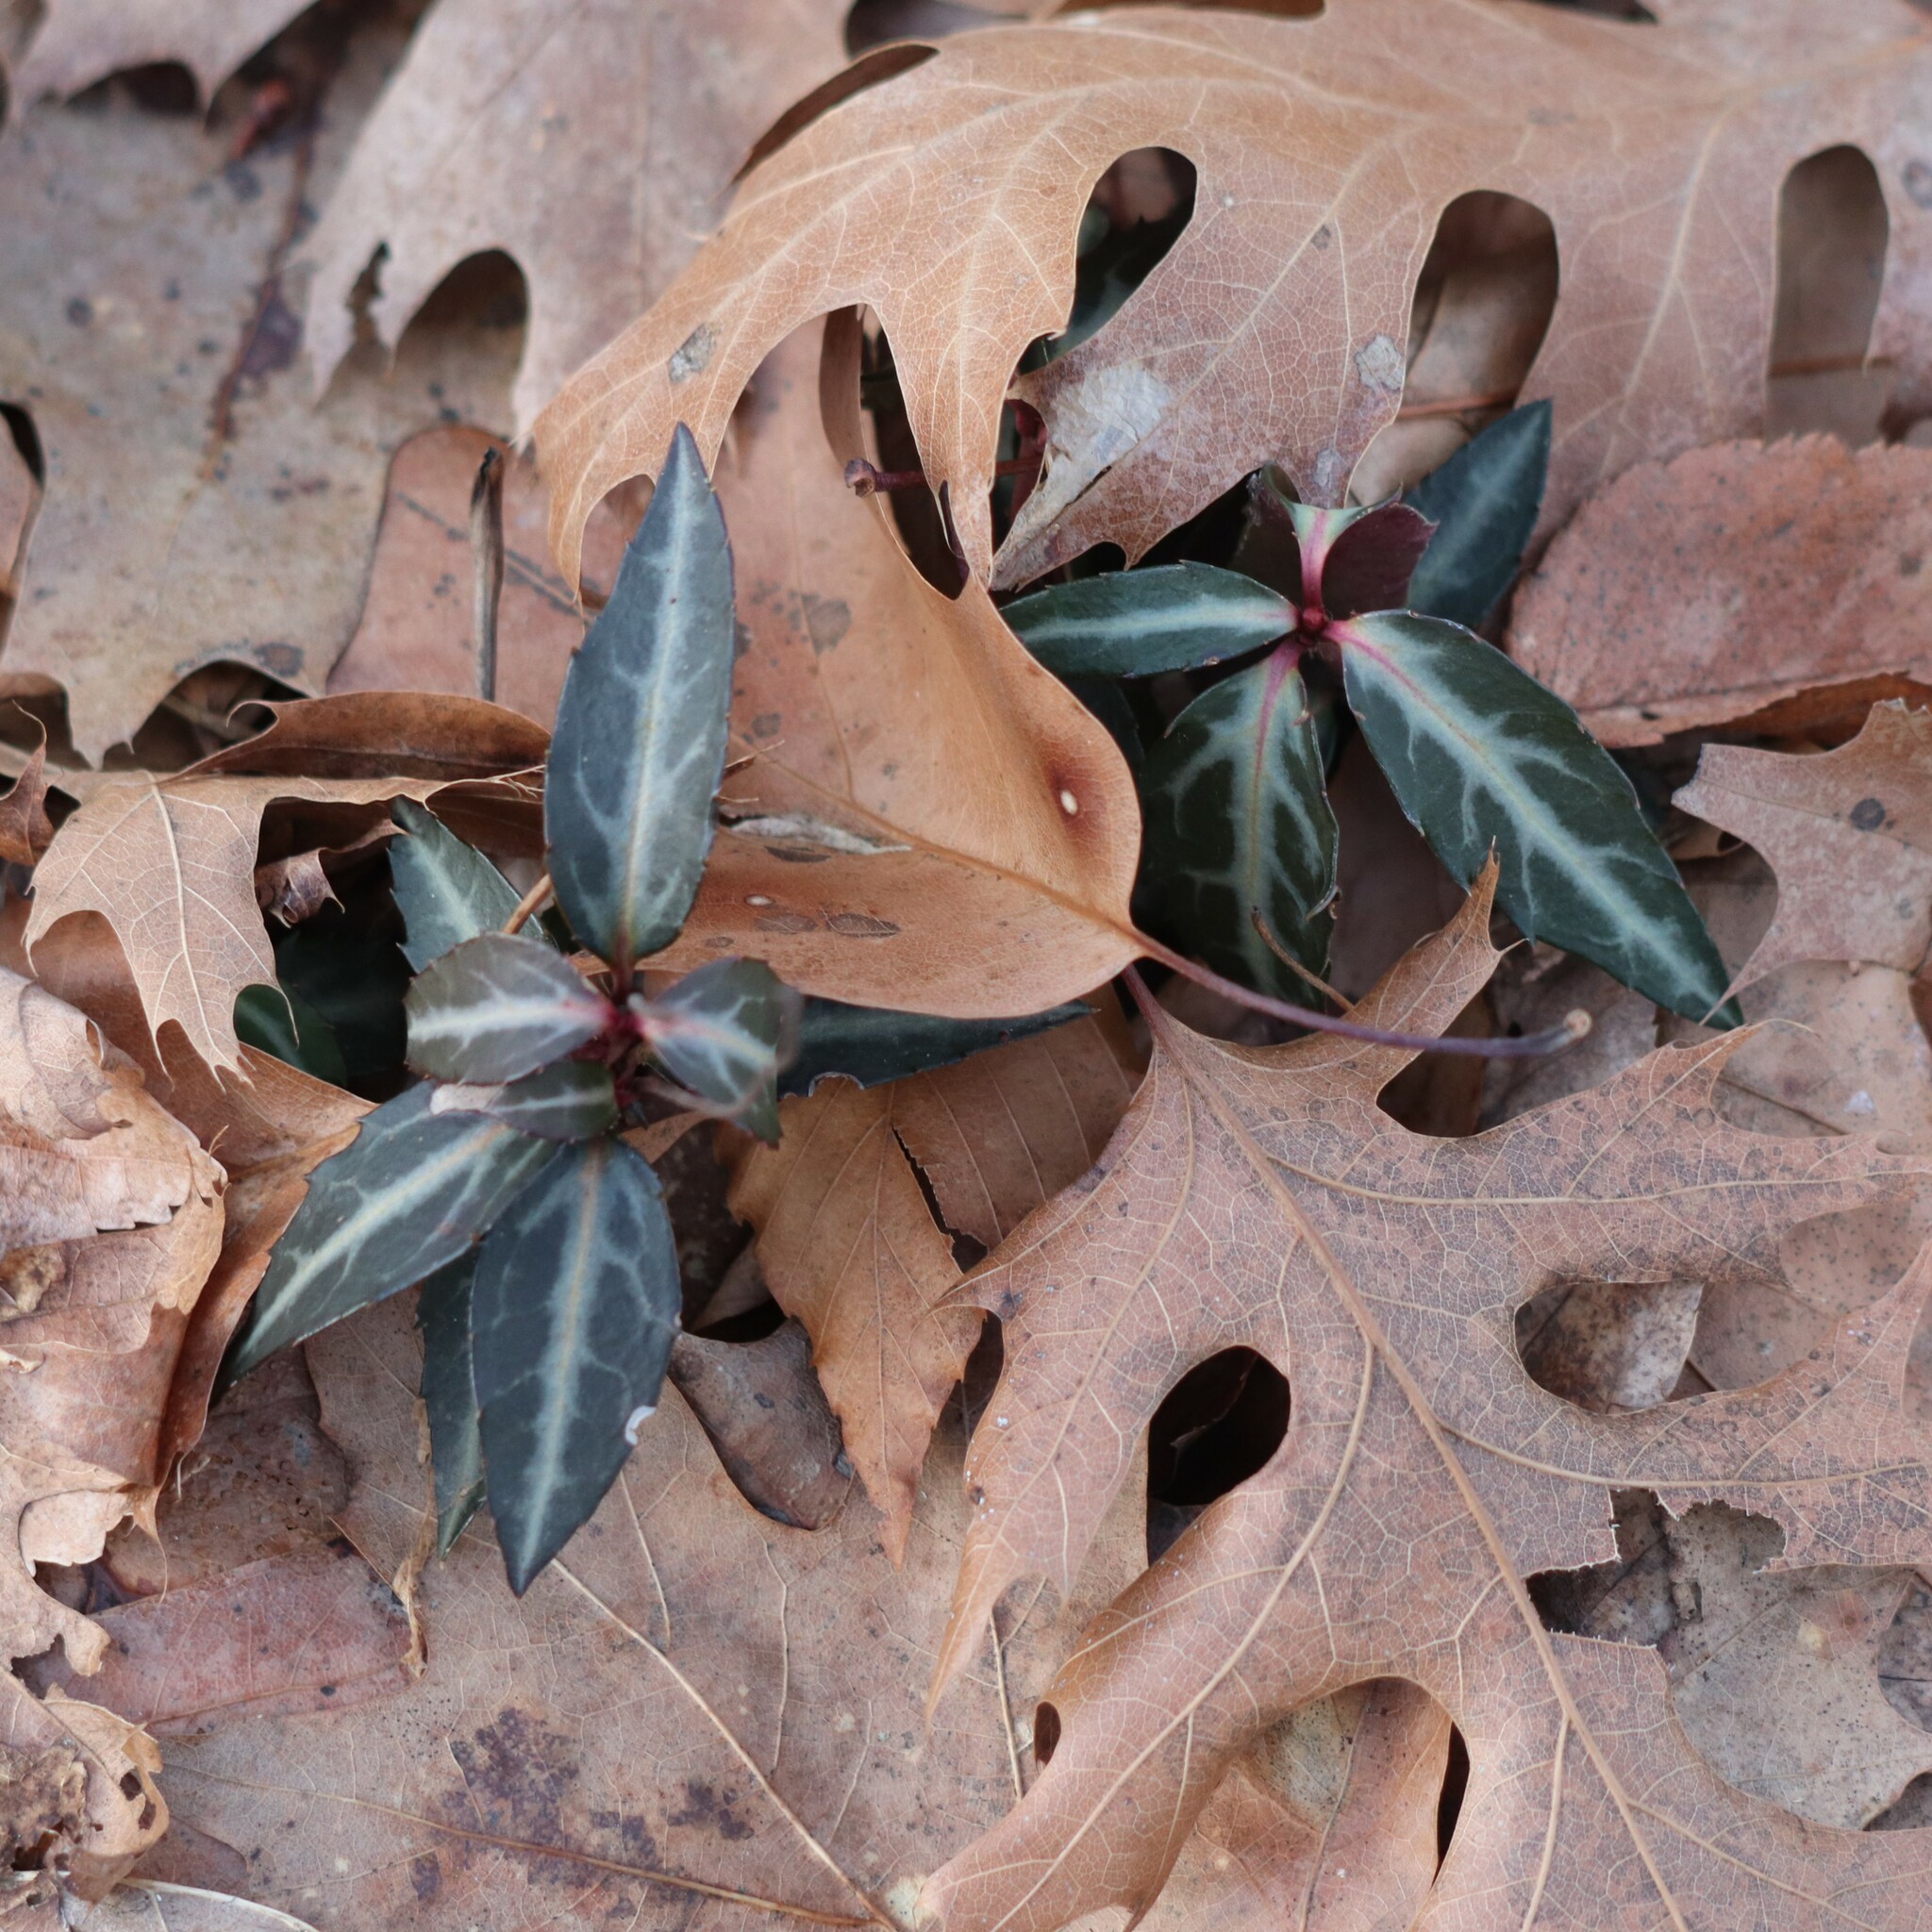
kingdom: Plantae
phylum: Tracheophyta
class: Magnoliopsida
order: Ericales
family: Ericaceae
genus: Chimaphila
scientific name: Chimaphila maculata
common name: Spotted pipsissewa
